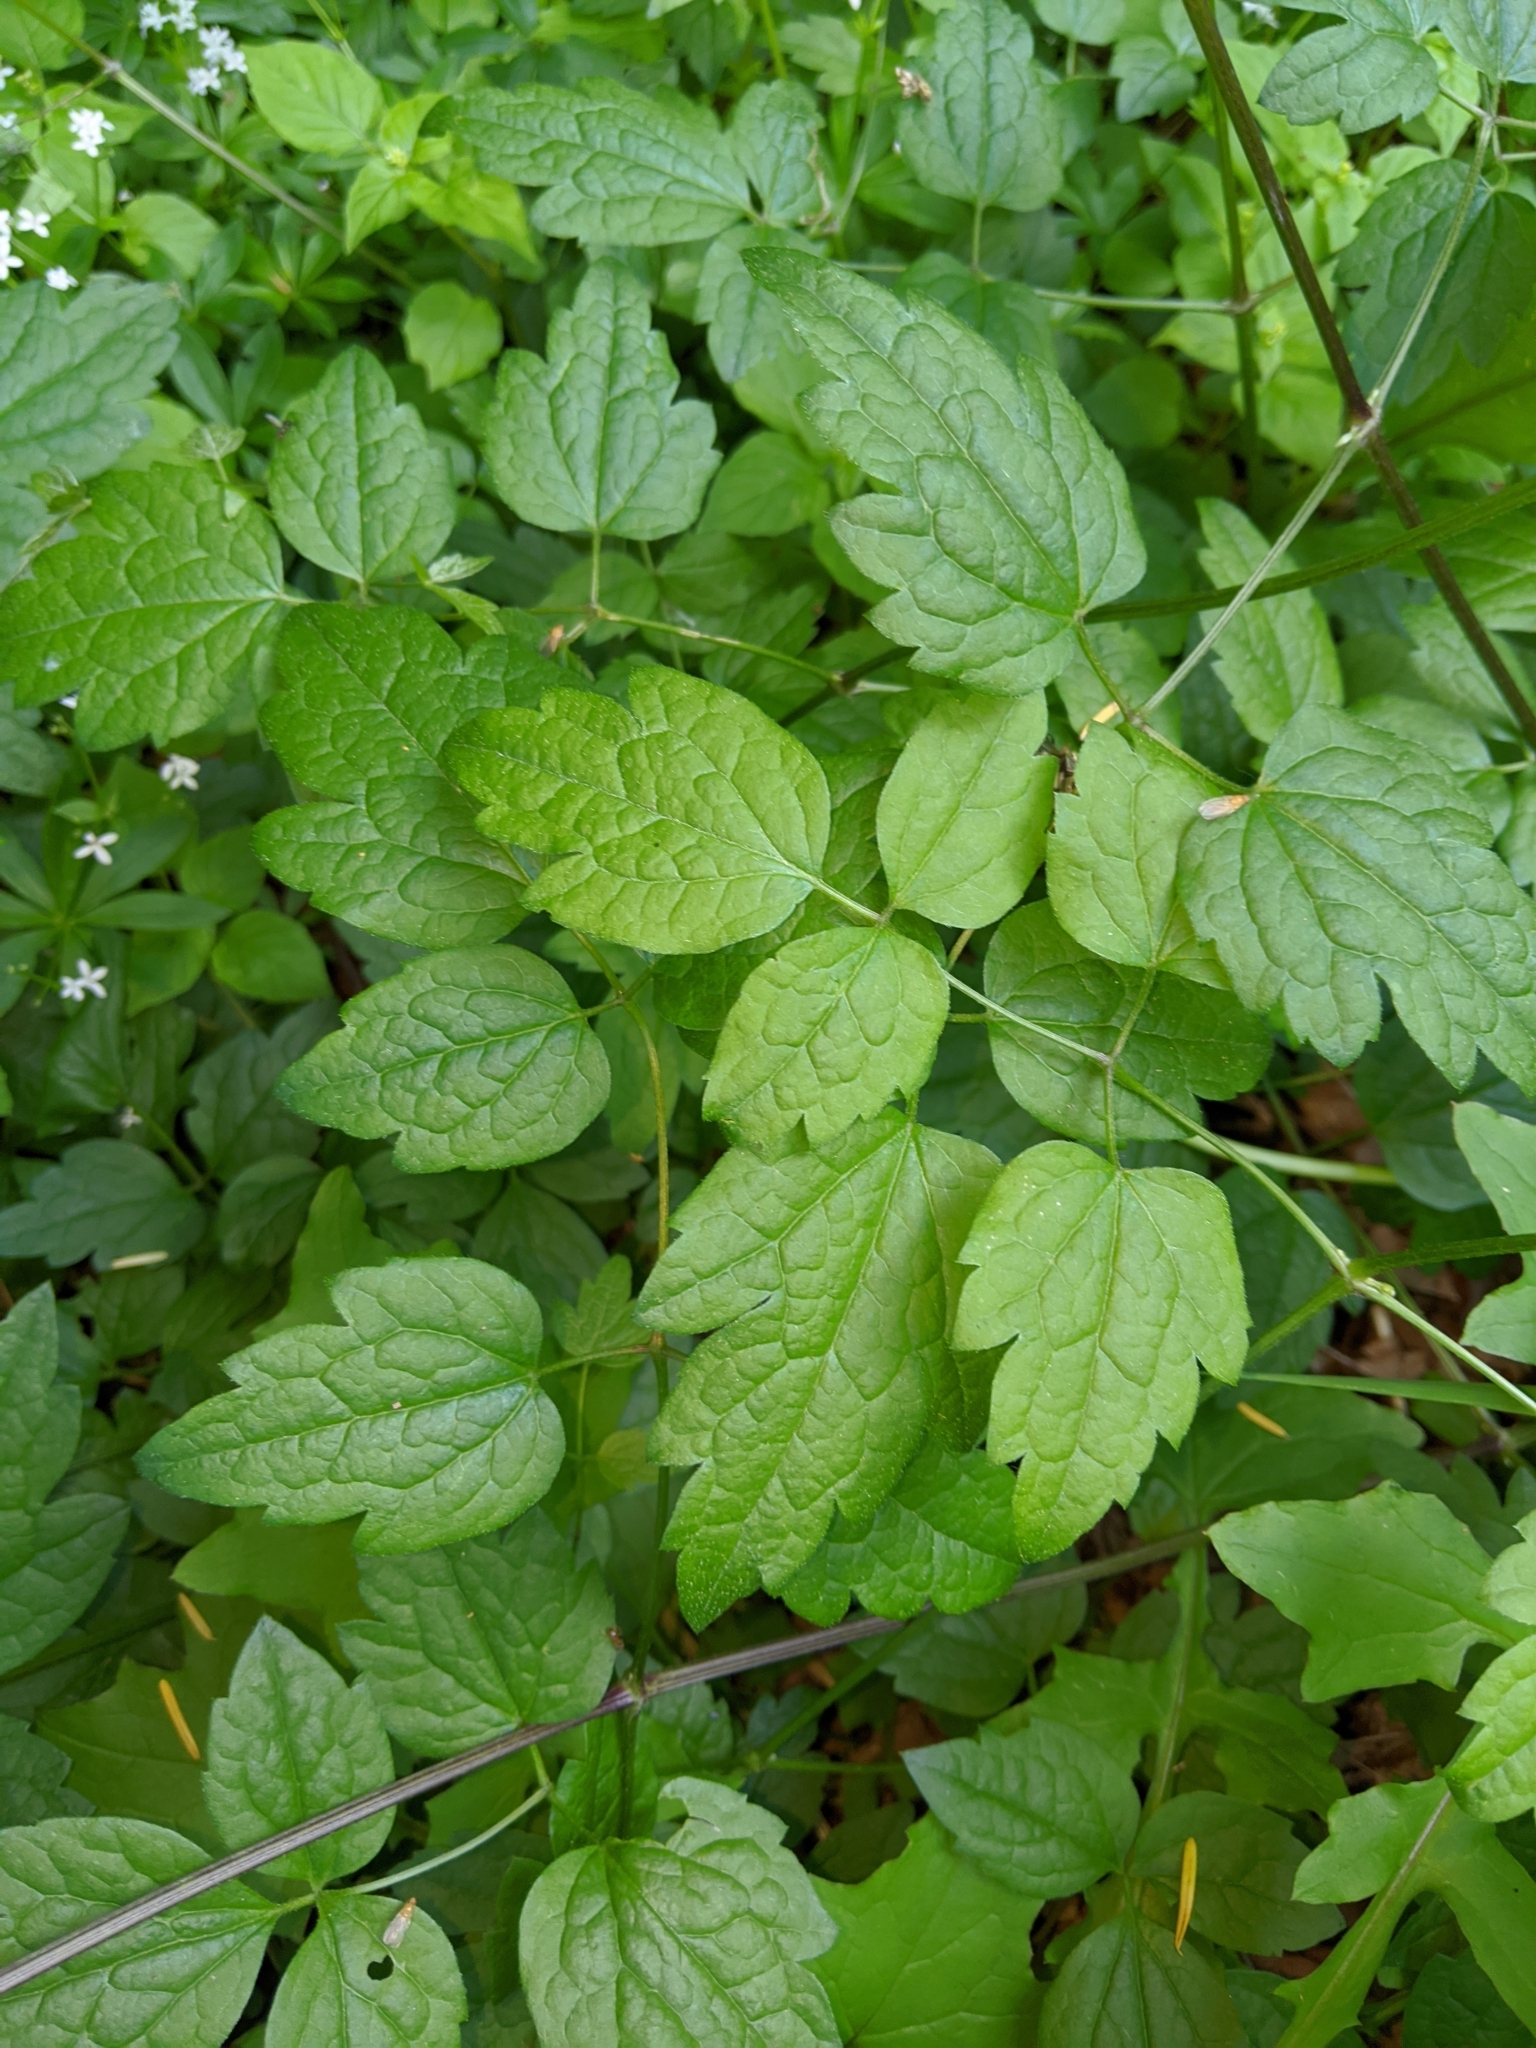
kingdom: Plantae
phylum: Tracheophyta
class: Magnoliopsida
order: Ranunculales
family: Ranunculaceae
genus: Clematis
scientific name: Clematis vitalba
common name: Evergreen clematis
